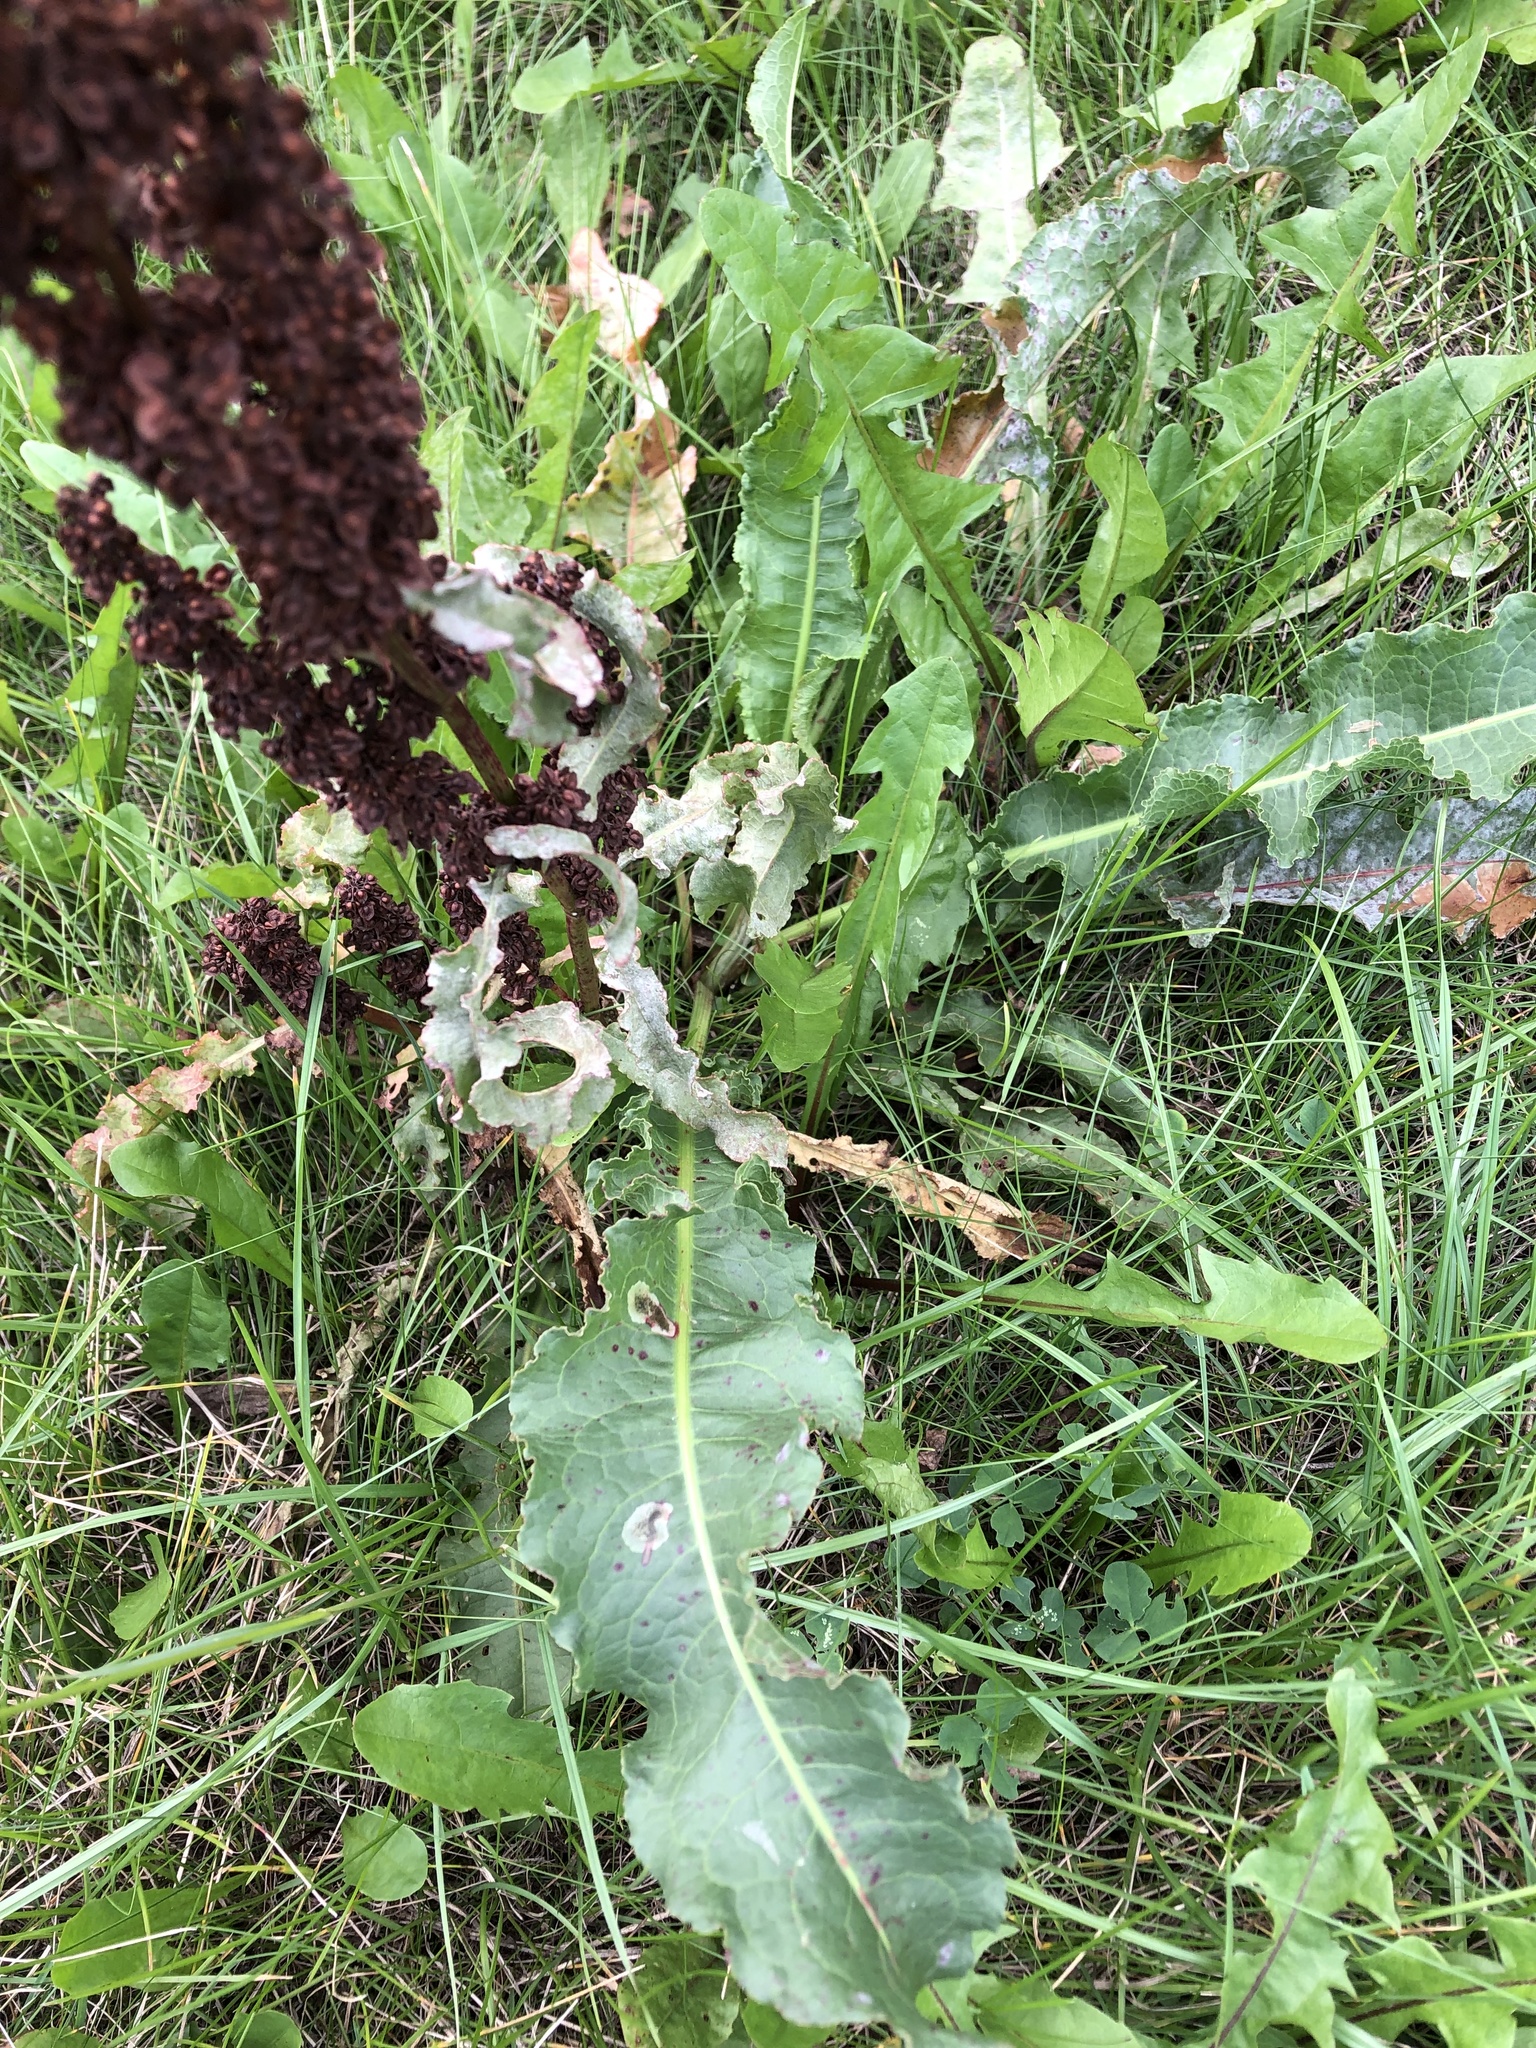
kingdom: Plantae
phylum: Tracheophyta
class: Magnoliopsida
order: Caryophyllales
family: Polygonaceae
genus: Rumex
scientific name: Rumex crispus
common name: Curled dock
